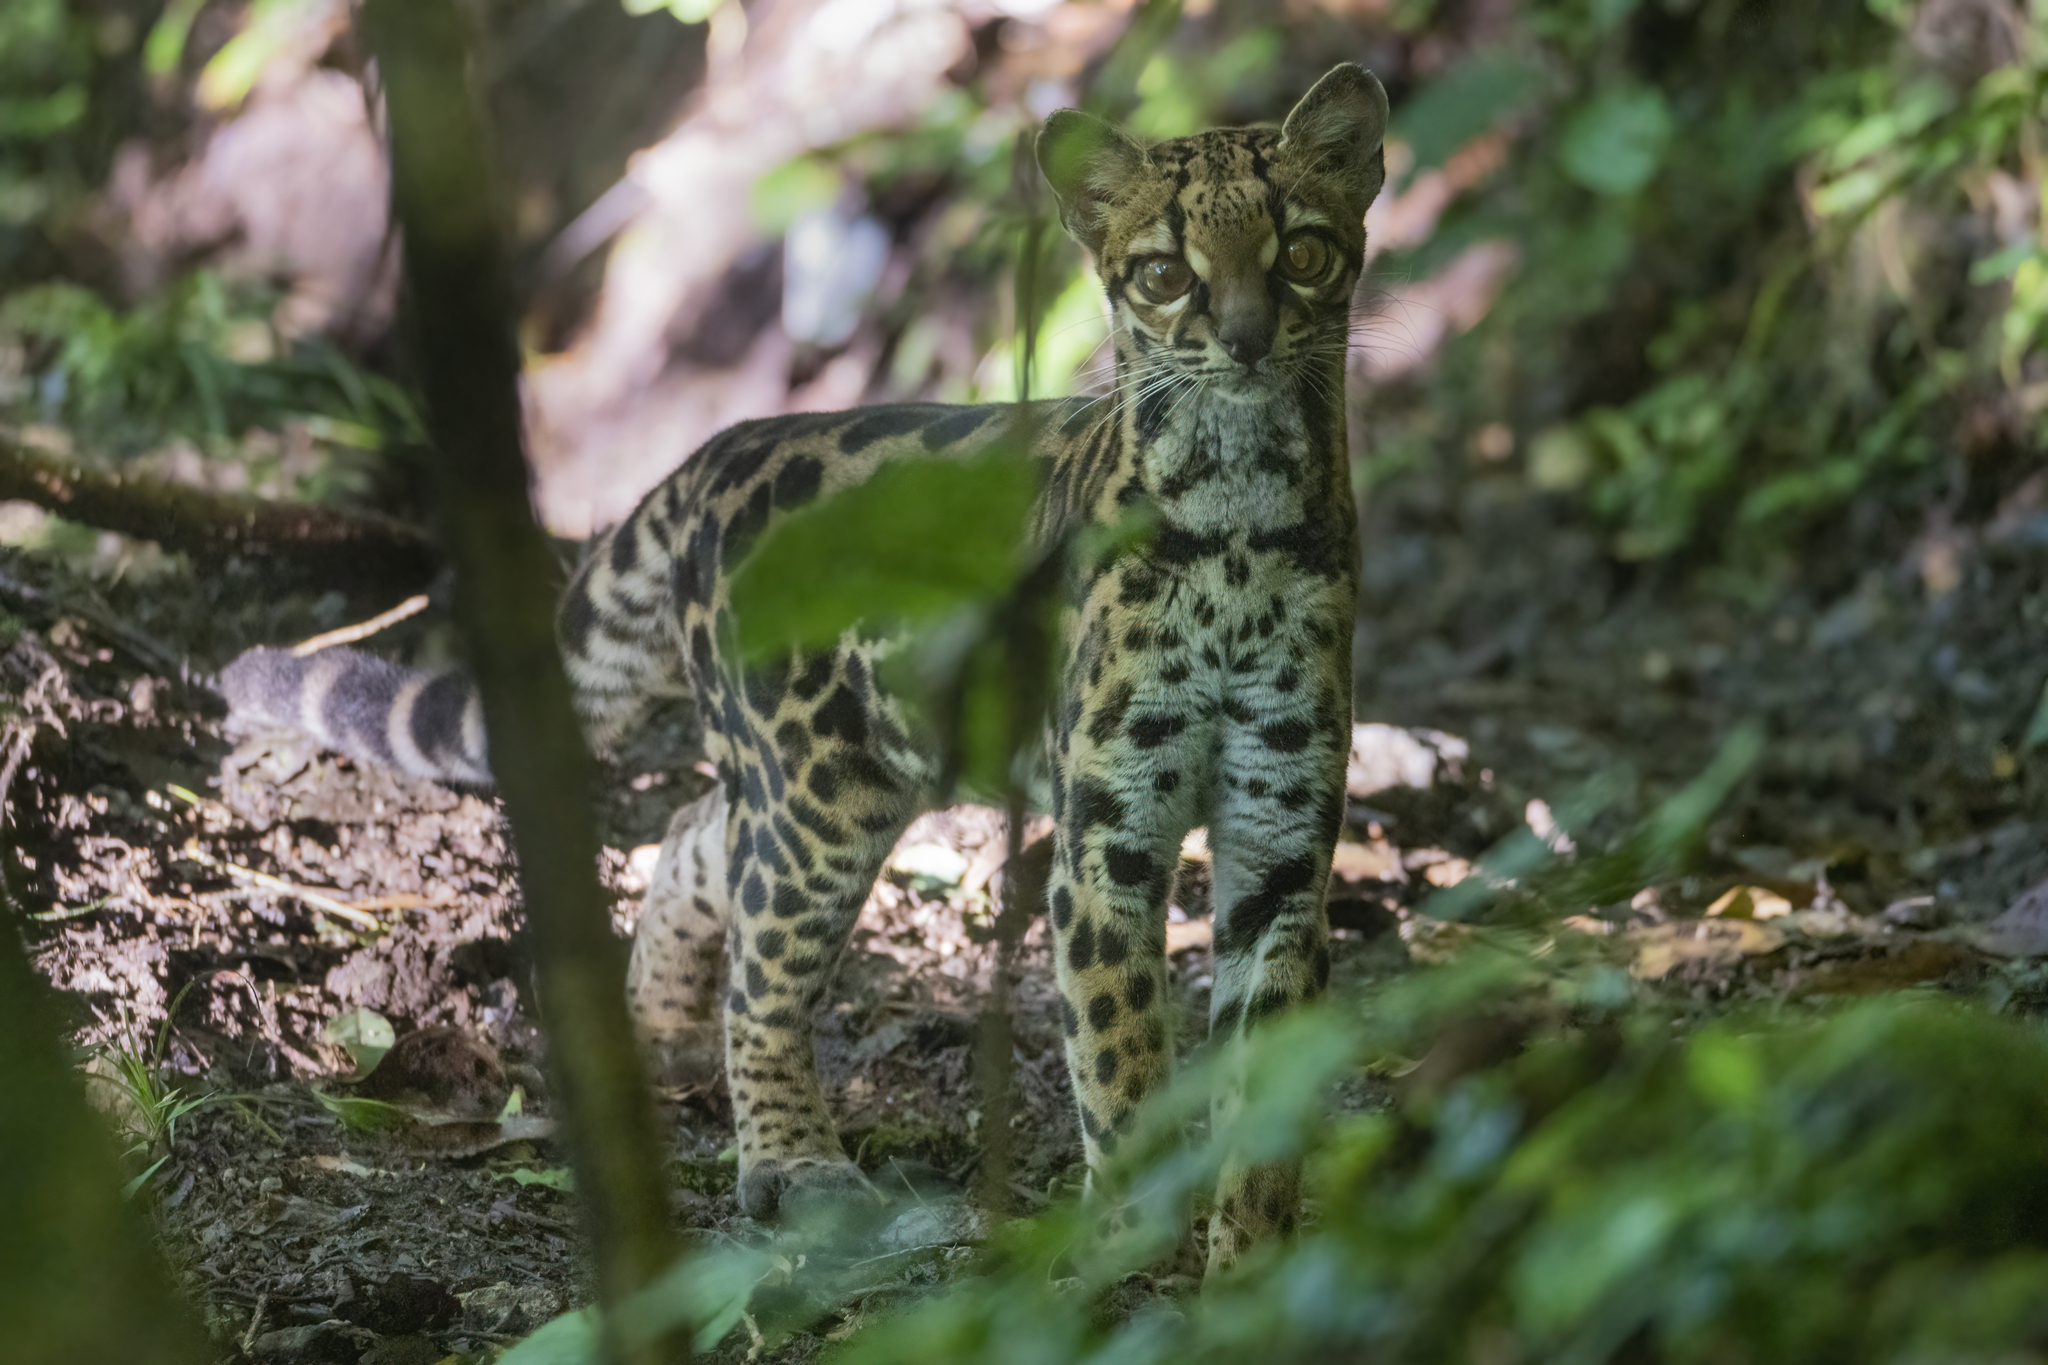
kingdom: Animalia
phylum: Chordata
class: Mammalia
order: Carnivora
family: Felidae
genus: Leopardus
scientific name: Leopardus wiedii
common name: Margay
